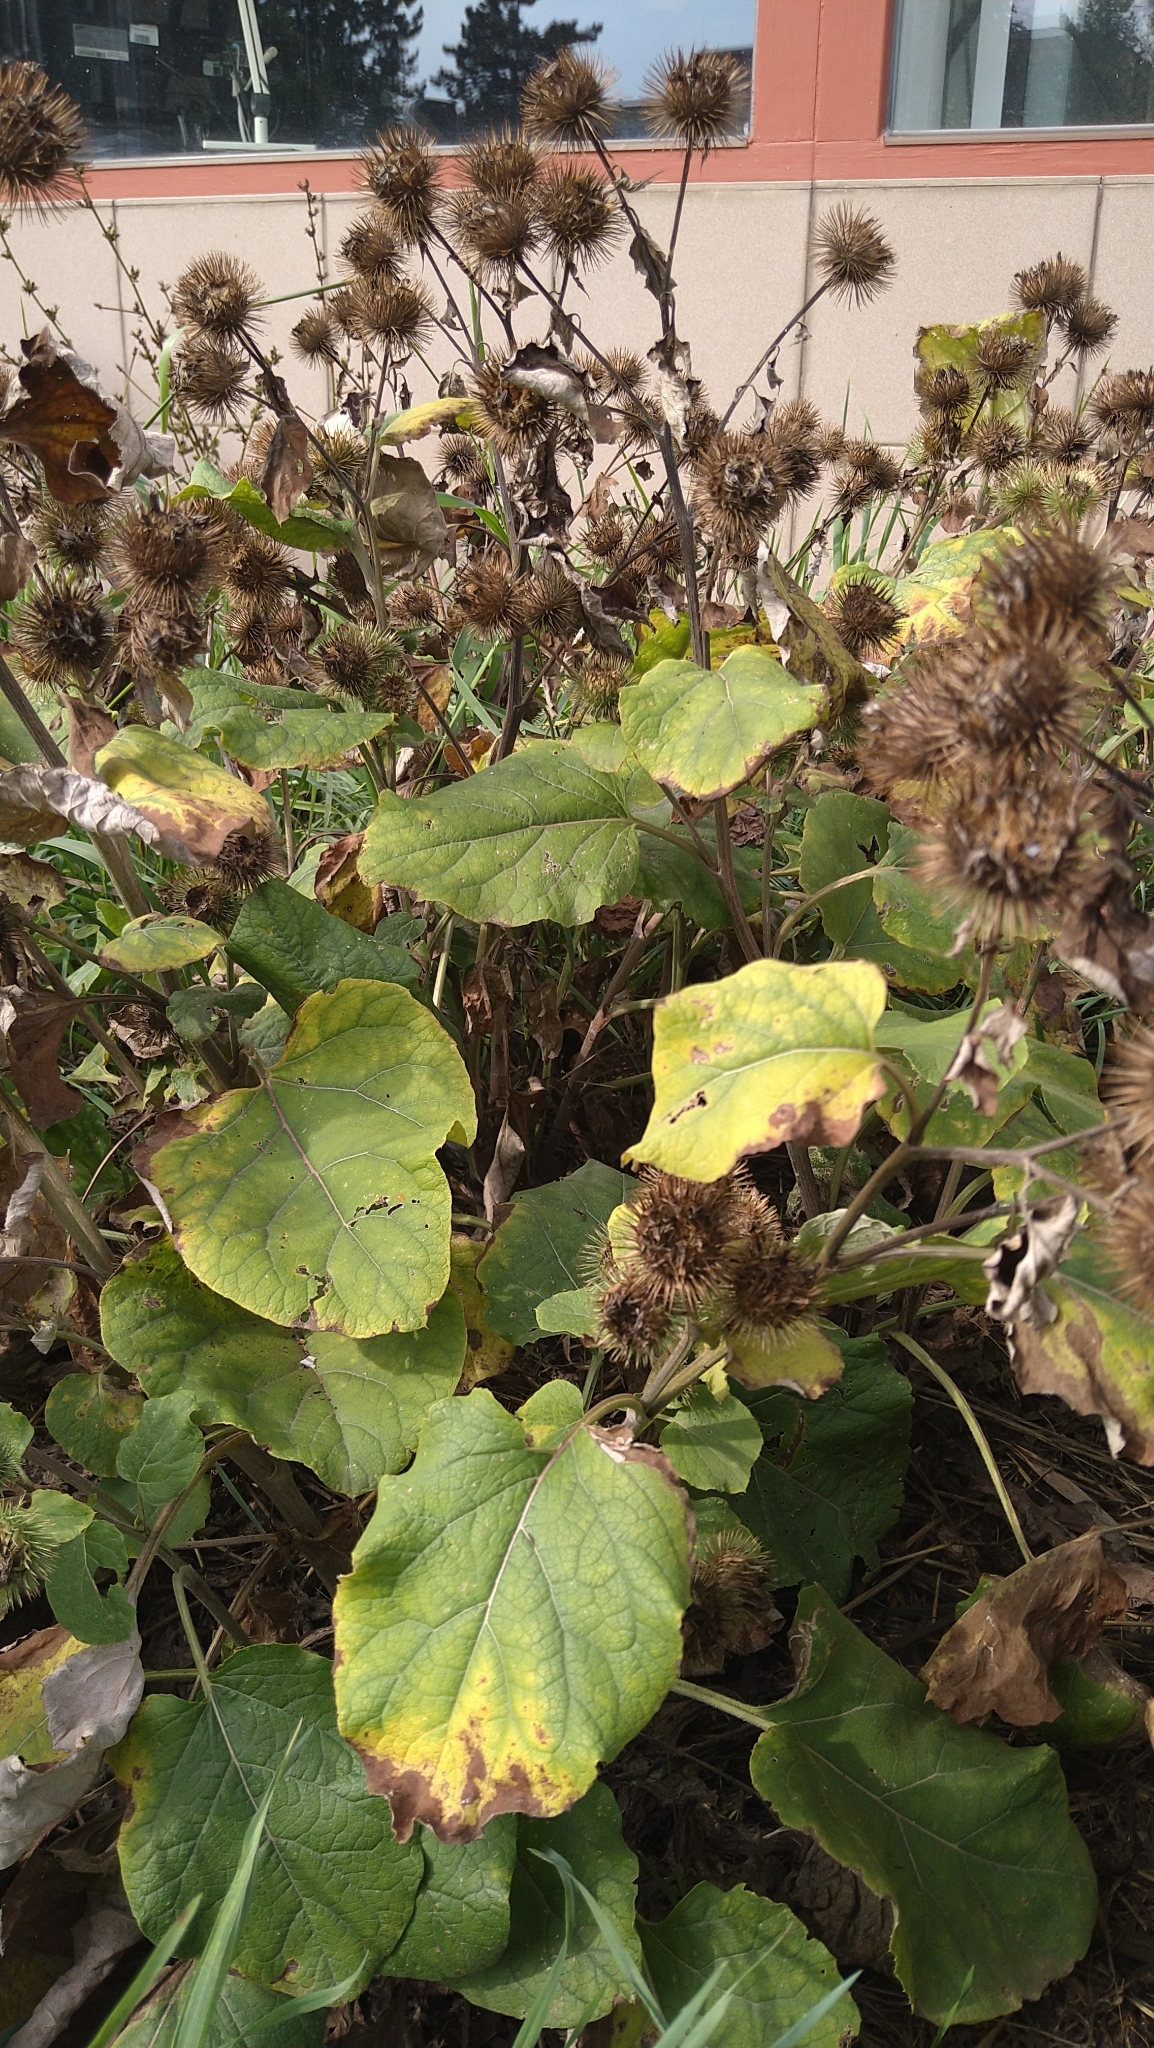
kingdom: Plantae
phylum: Tracheophyta
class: Magnoliopsida
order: Asterales
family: Asteraceae
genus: Arctium
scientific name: Arctium lappa
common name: Greater burdock
